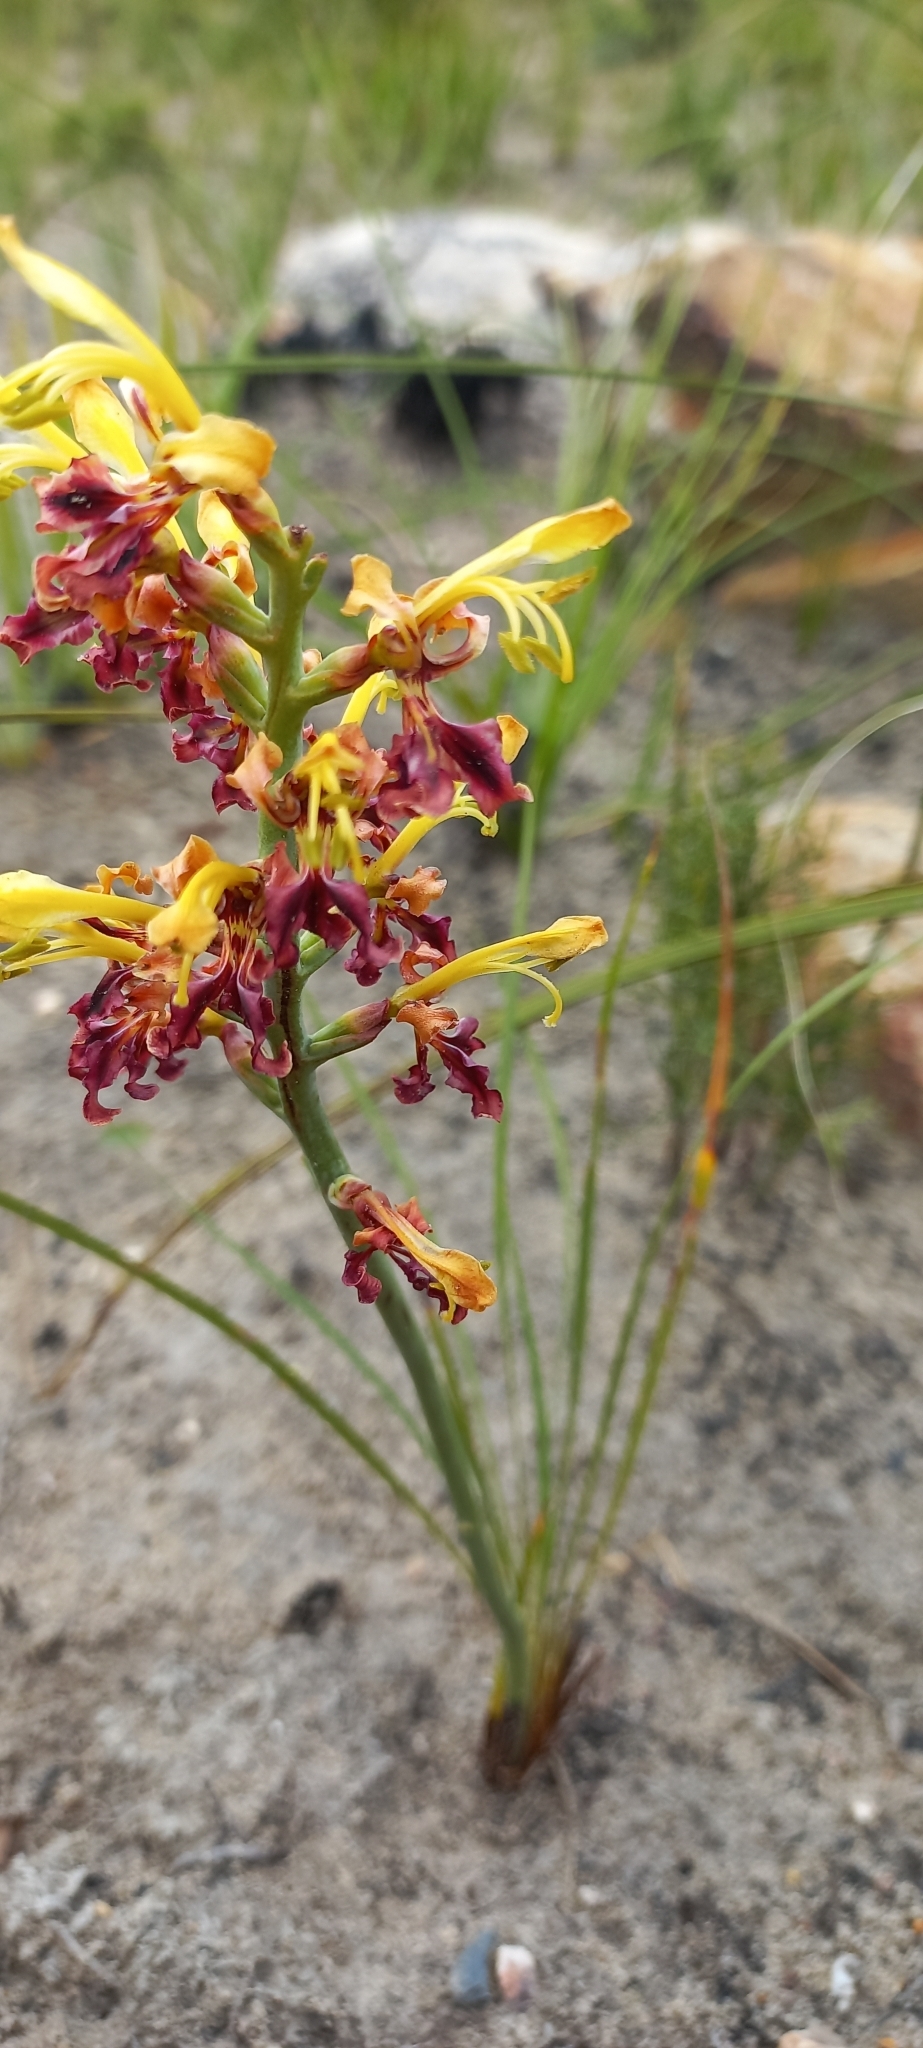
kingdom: Plantae
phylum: Tracheophyta
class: Liliopsida
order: Asparagales
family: Iridaceae
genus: Tritoniopsis
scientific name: Tritoniopsis parviflora
